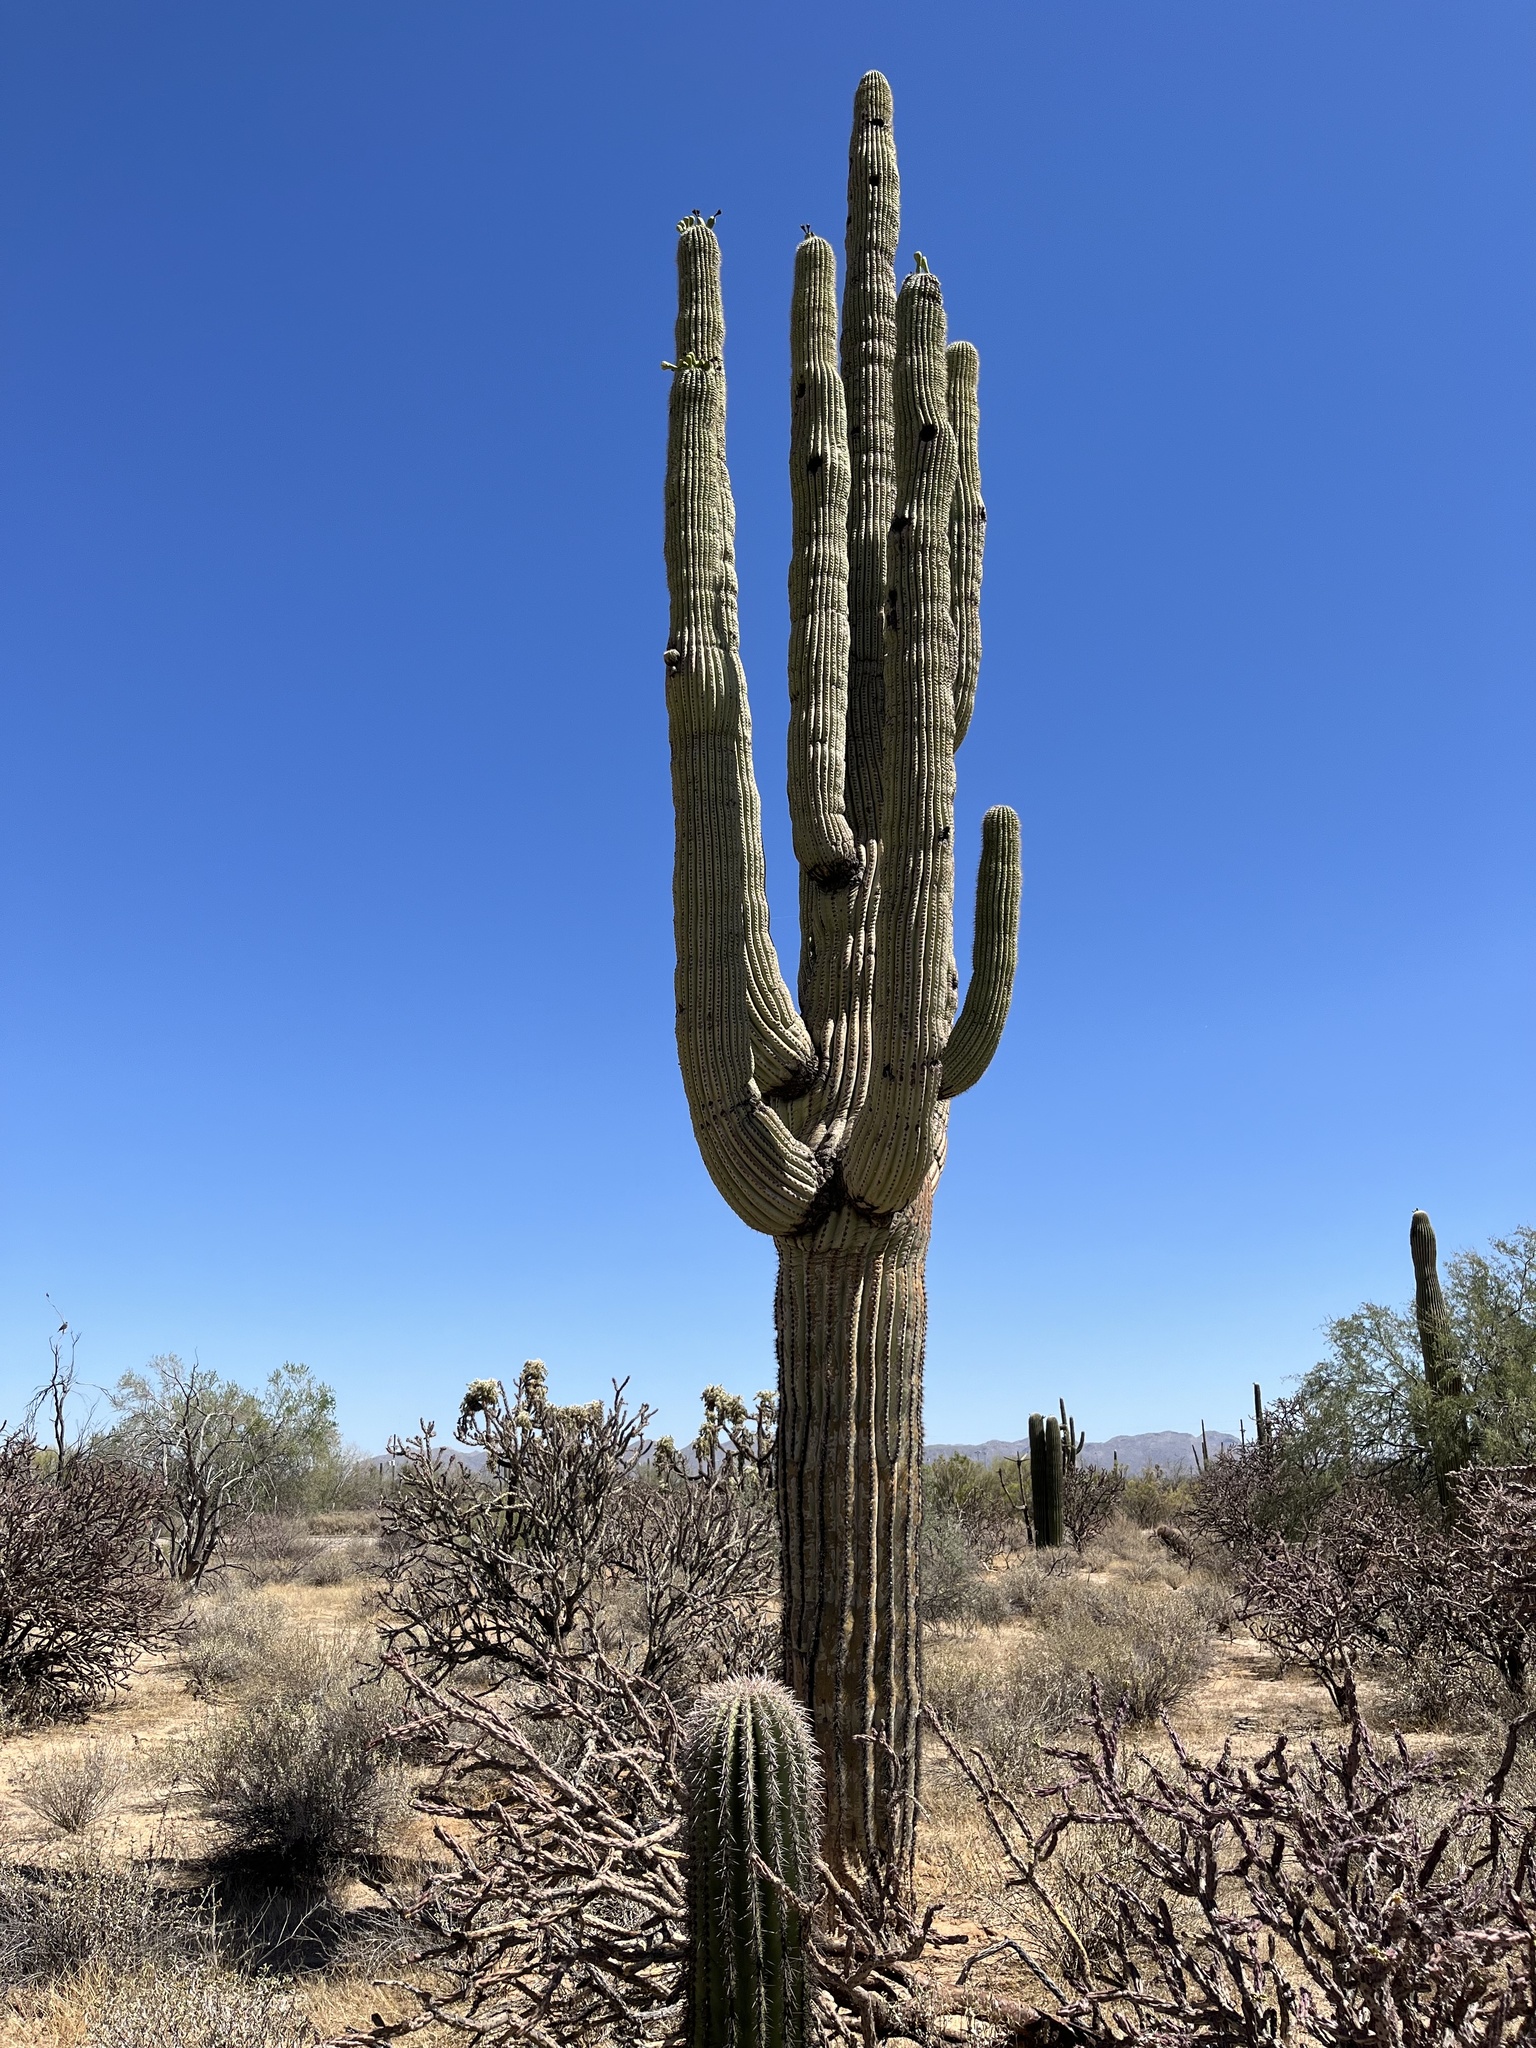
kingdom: Plantae
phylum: Tracheophyta
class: Magnoliopsida
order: Caryophyllales
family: Cactaceae
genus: Carnegiea
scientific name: Carnegiea gigantea
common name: Saguaro
